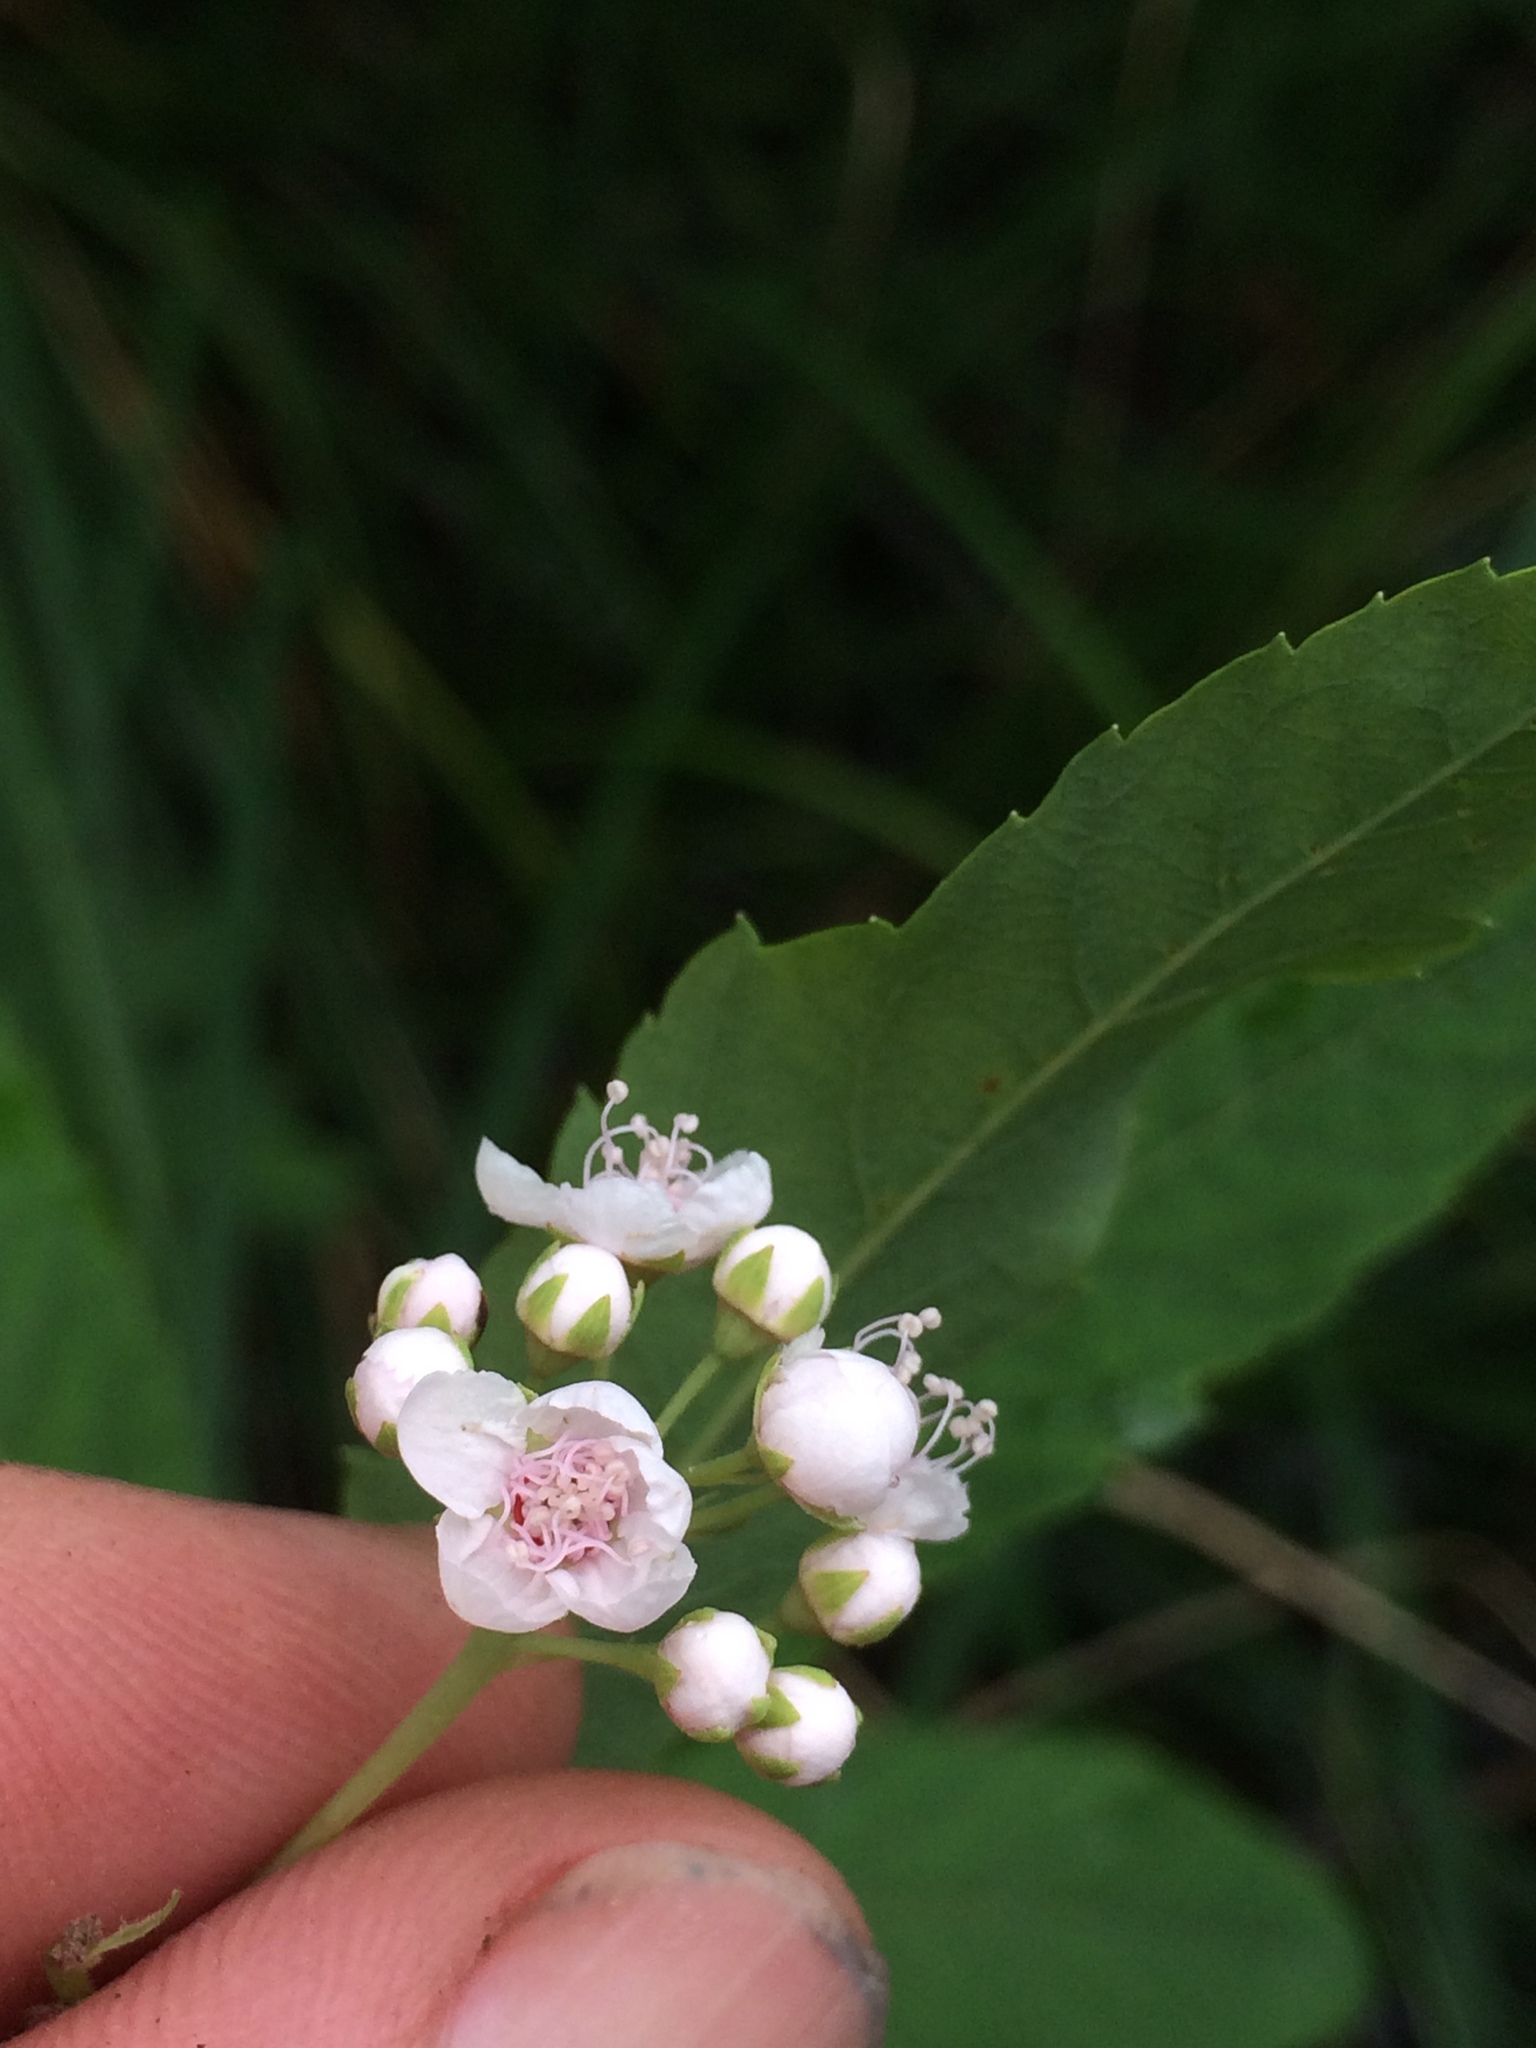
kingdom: Plantae
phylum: Tracheophyta
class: Magnoliopsida
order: Rosales
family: Rosaceae
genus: Spiraea
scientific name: Spiraea alba
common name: Pale bridewort
